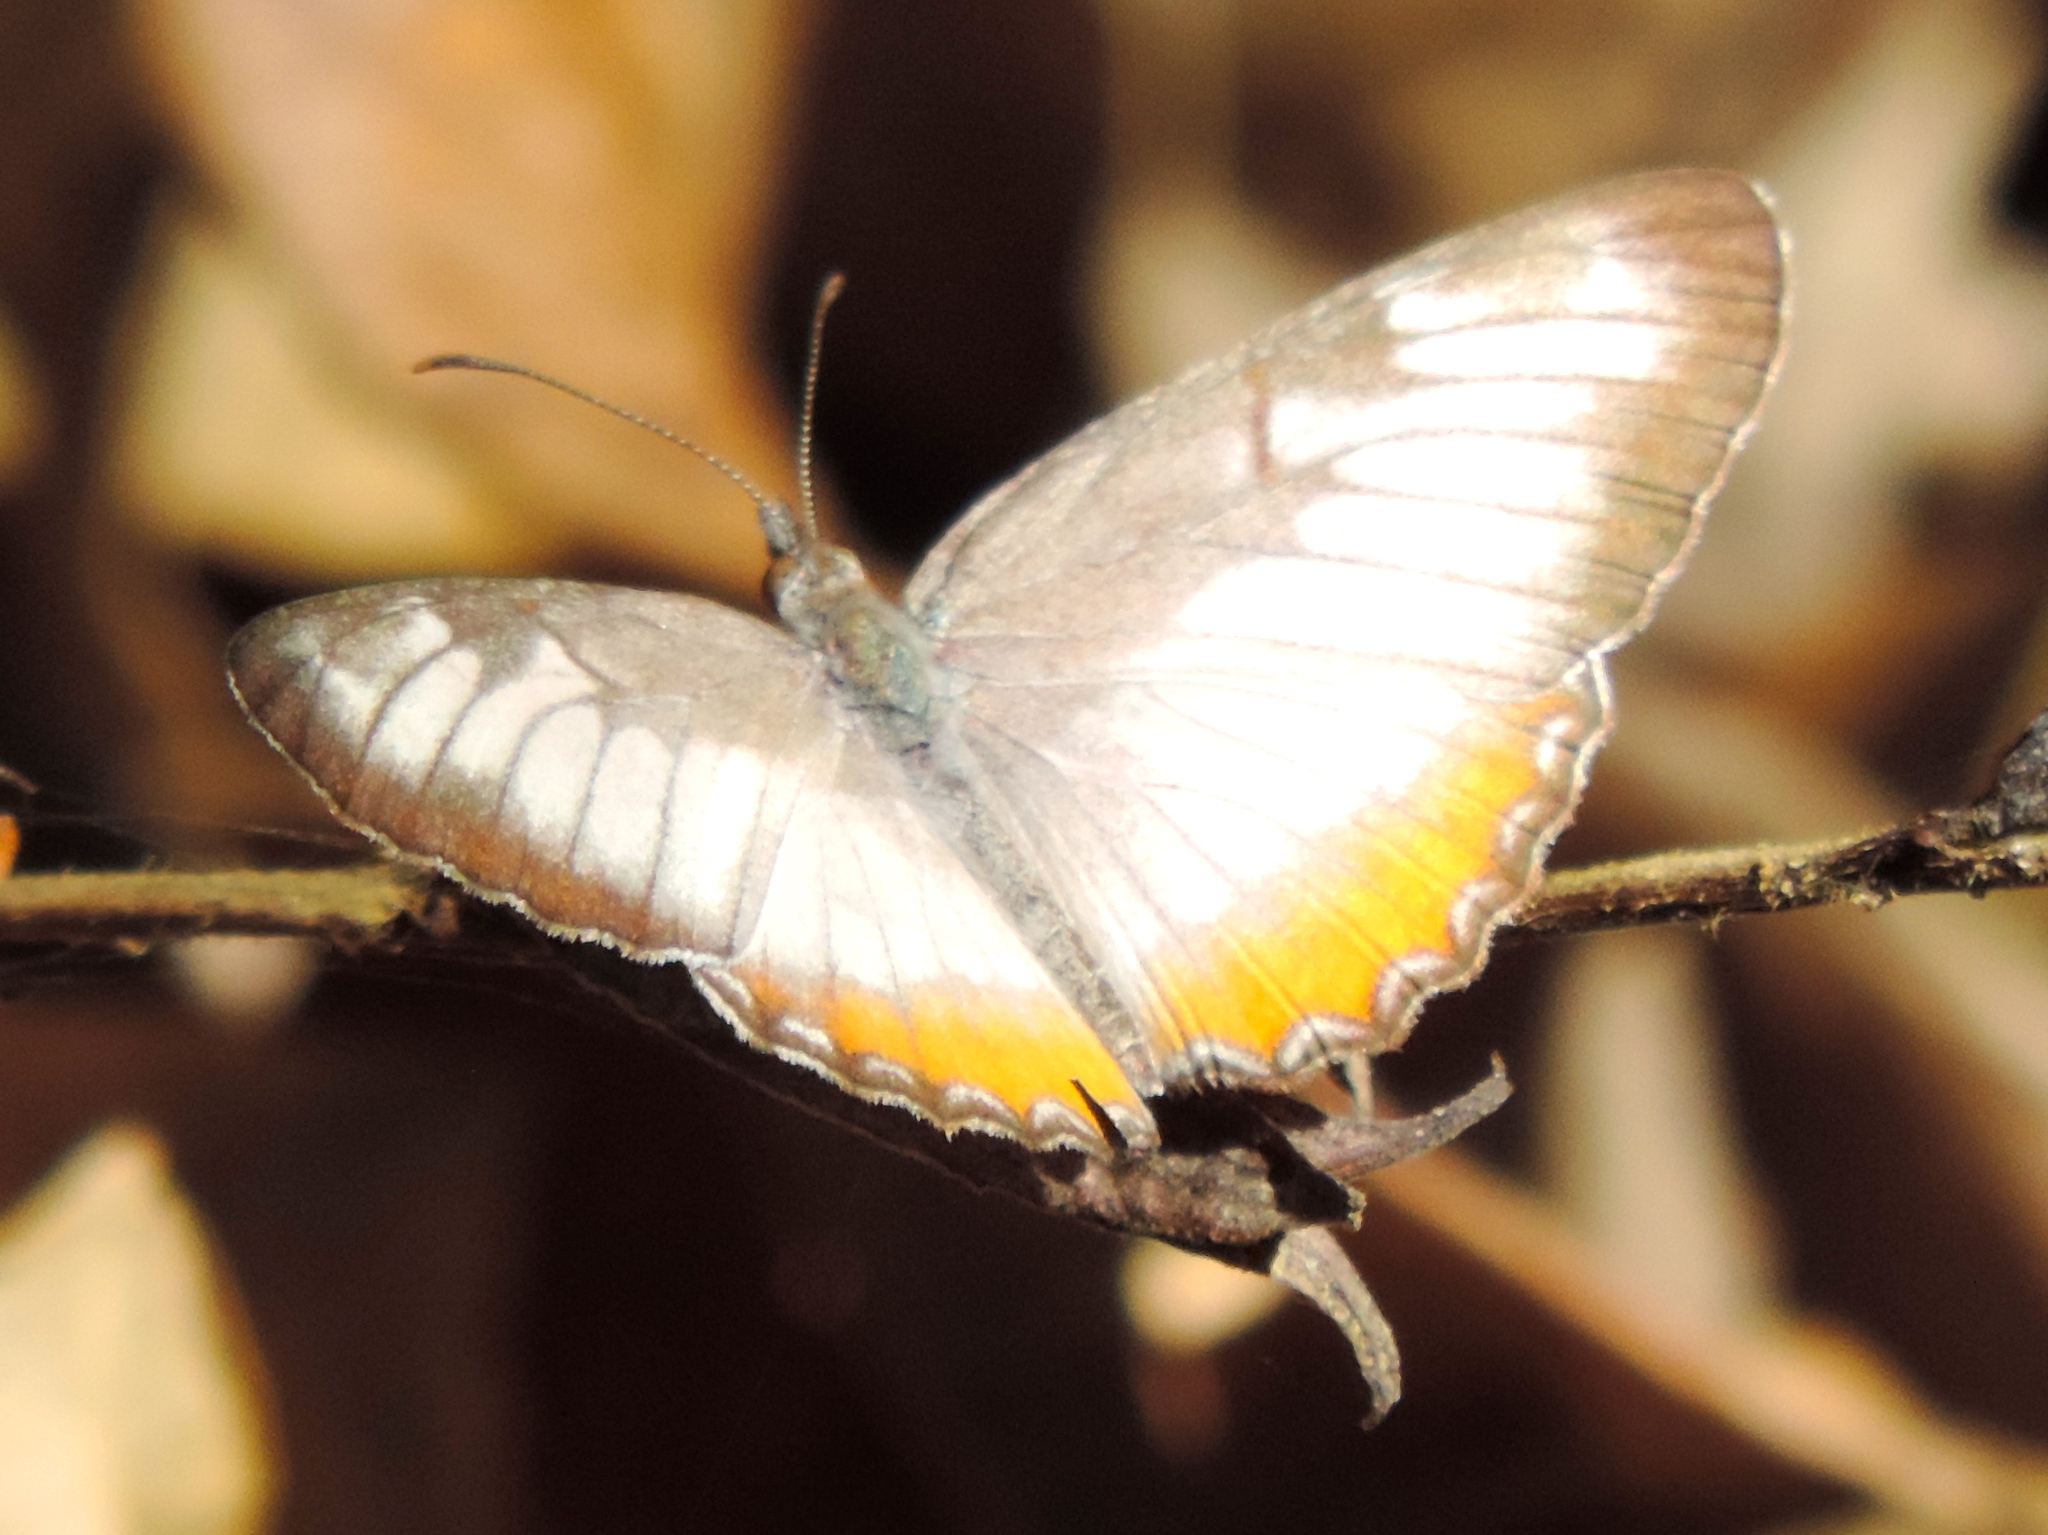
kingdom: Animalia
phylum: Arthropoda
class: Insecta
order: Lepidoptera
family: Nymphalidae
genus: Mestra
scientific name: Mestra amymone
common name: Common mestra
